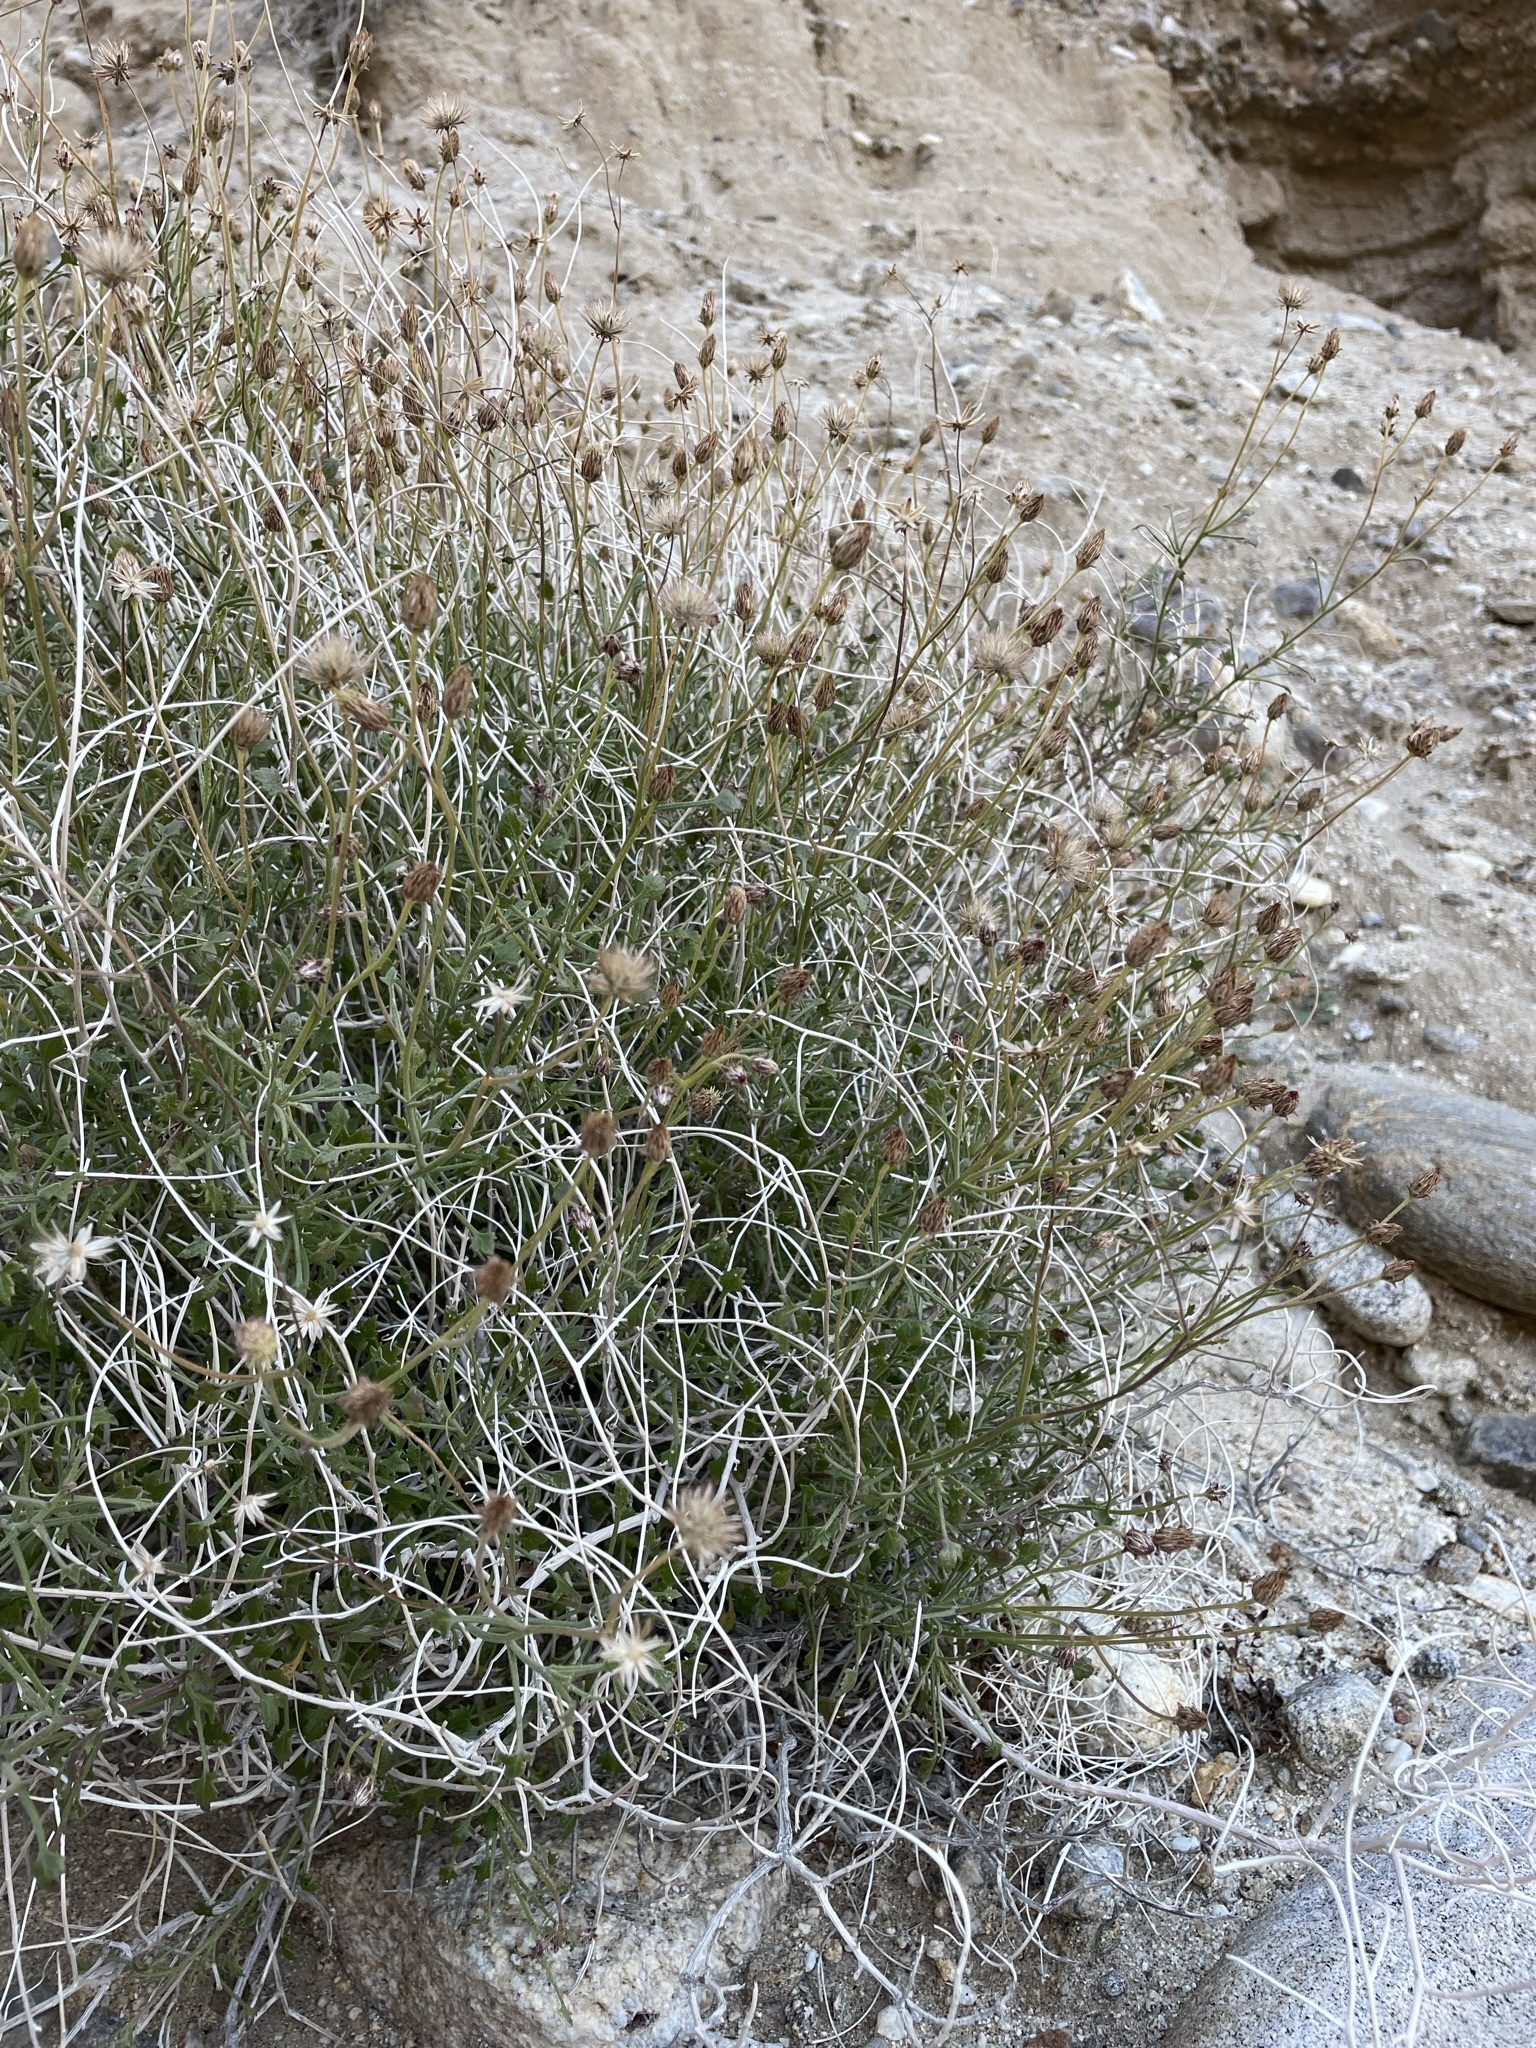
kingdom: Plantae
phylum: Tracheophyta
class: Magnoliopsida
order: Asterales
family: Asteraceae
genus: Pleurocoronis
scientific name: Pleurocoronis pluriseta
